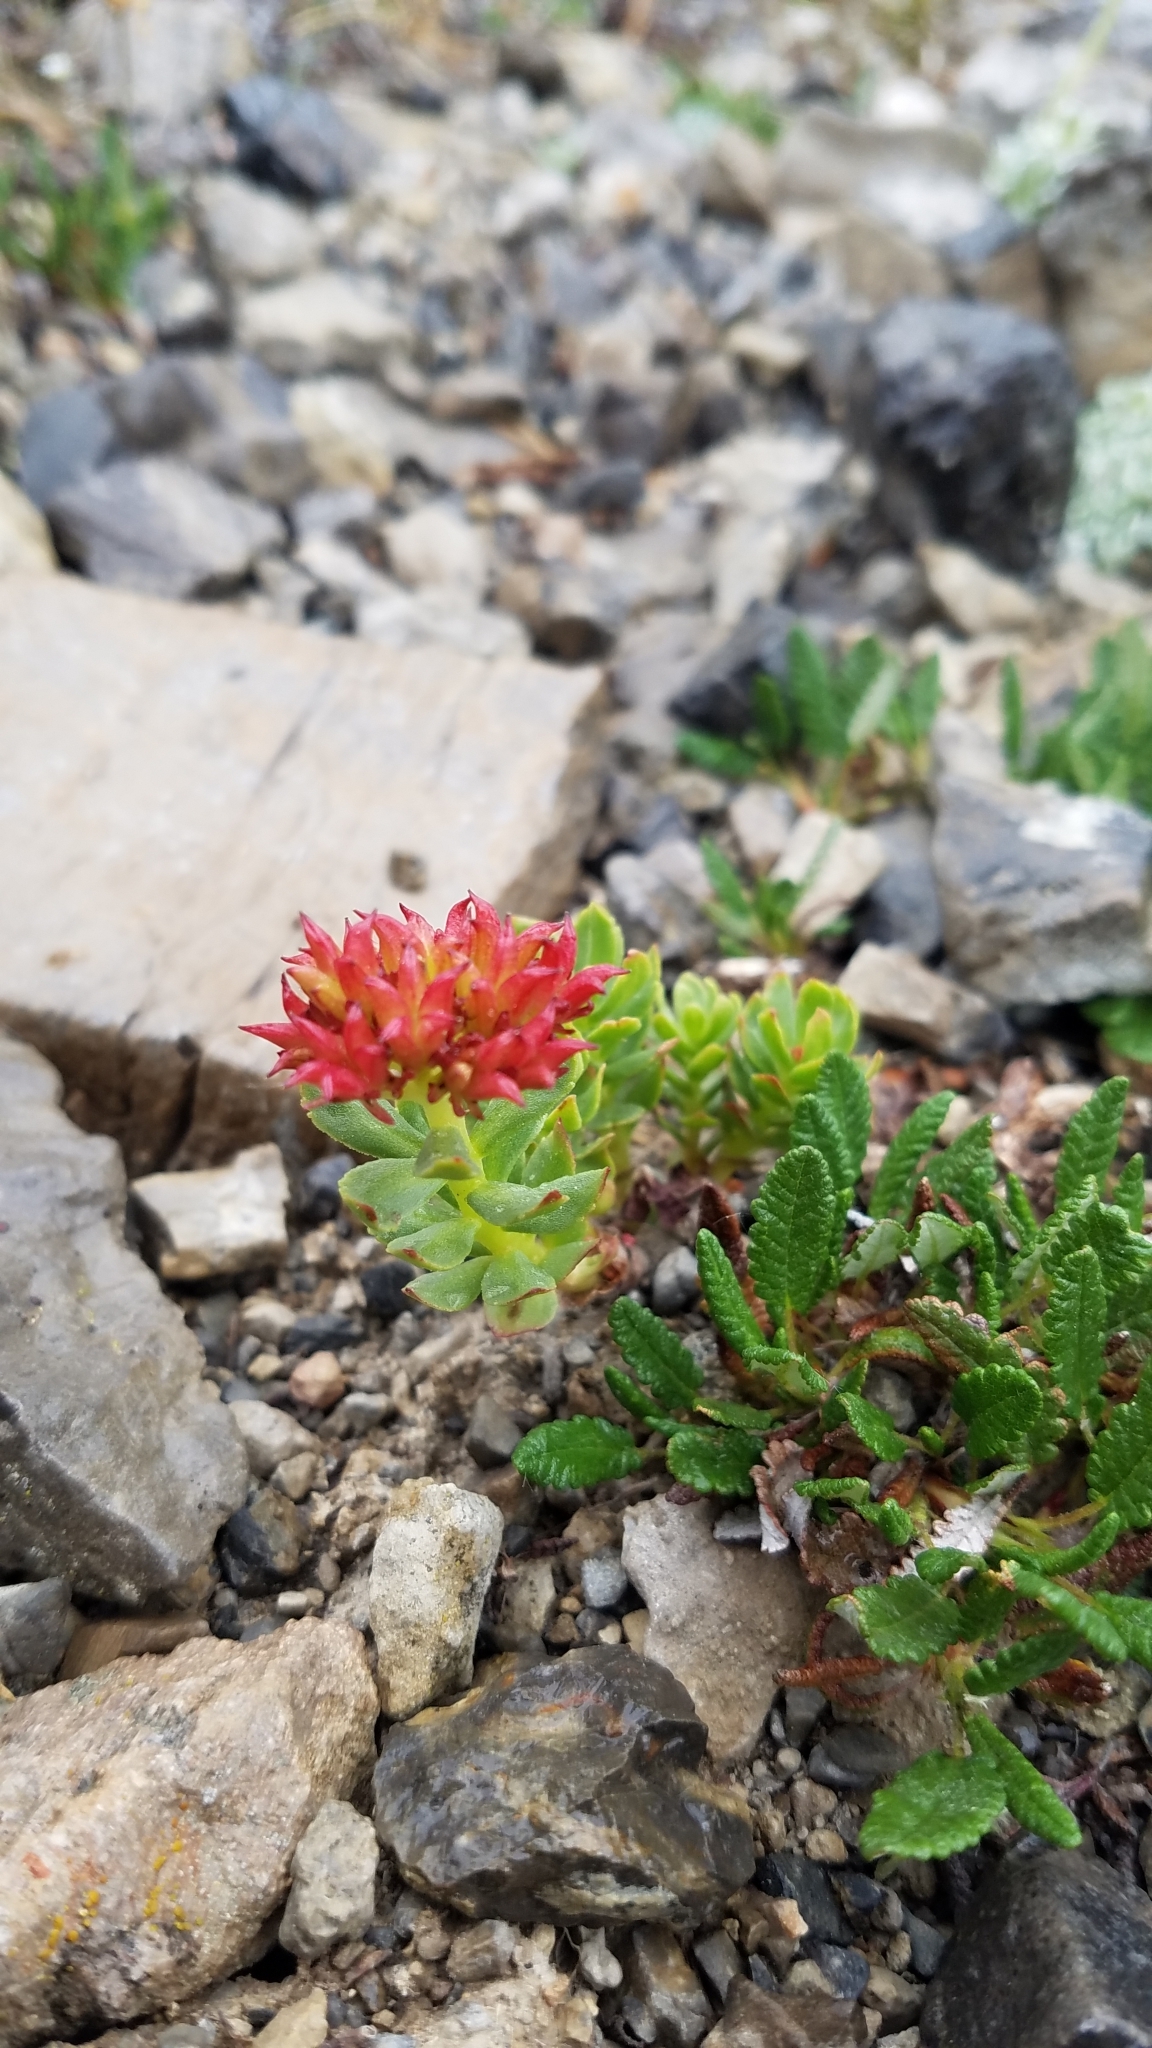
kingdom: Plantae
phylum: Tracheophyta
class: Magnoliopsida
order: Saxifragales
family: Crassulaceae
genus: Rhodiola
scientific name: Rhodiola integrifolia
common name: Western roseroot
